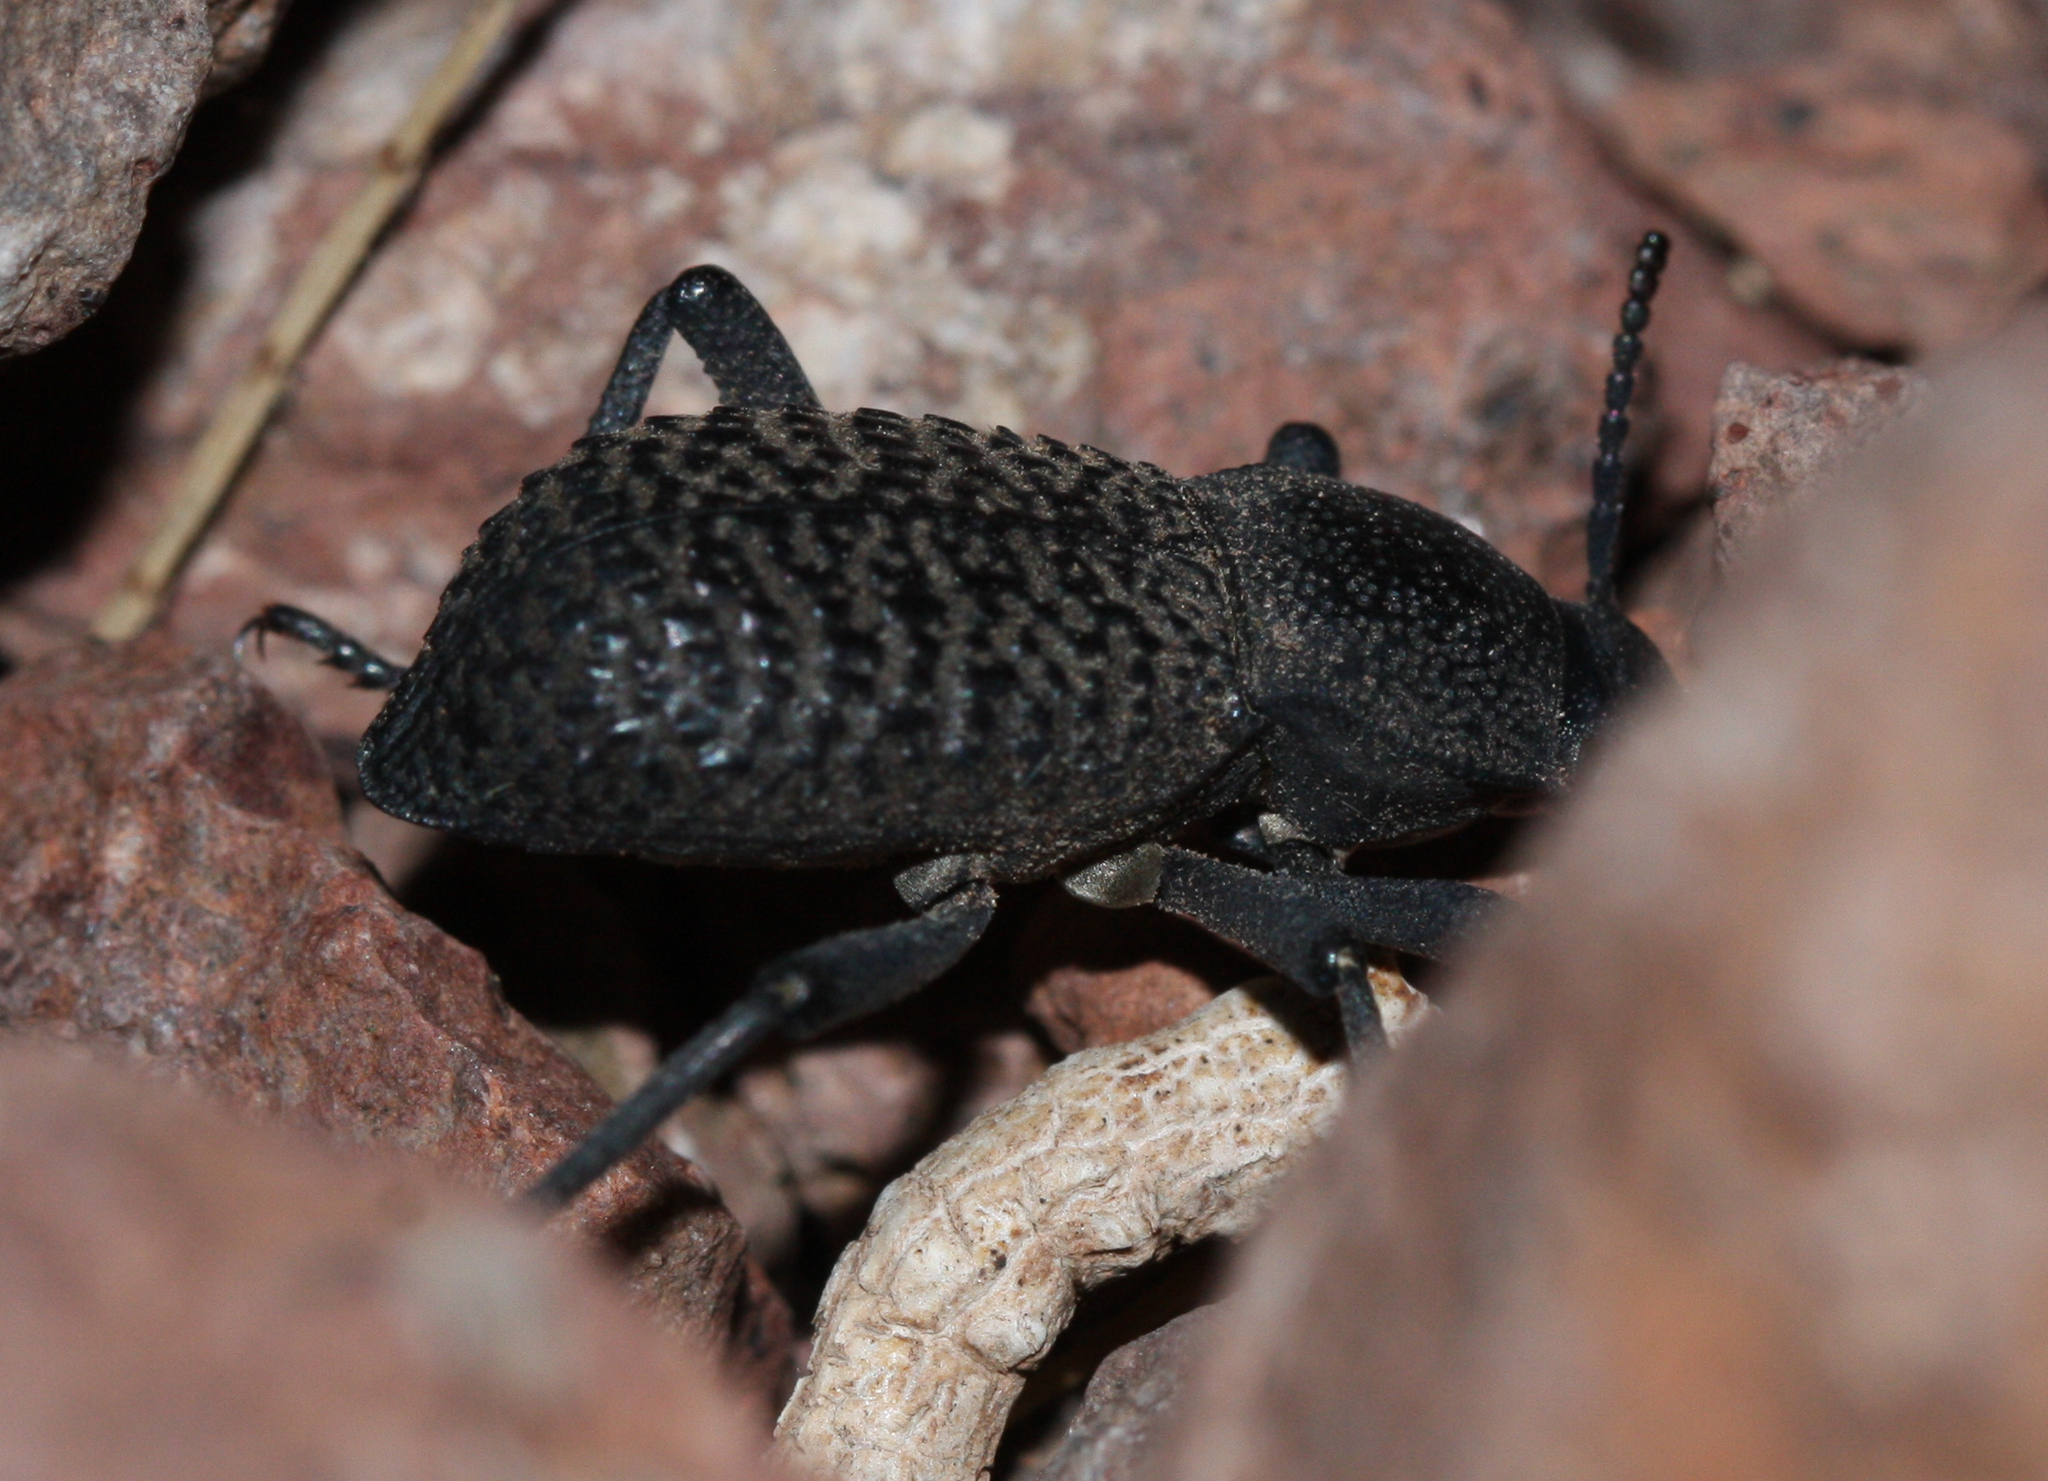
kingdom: Animalia
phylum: Arthropoda
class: Insecta
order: Coleoptera
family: Tenebrionidae
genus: Cryptoglossa
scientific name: Cryptoglossa variolosa
